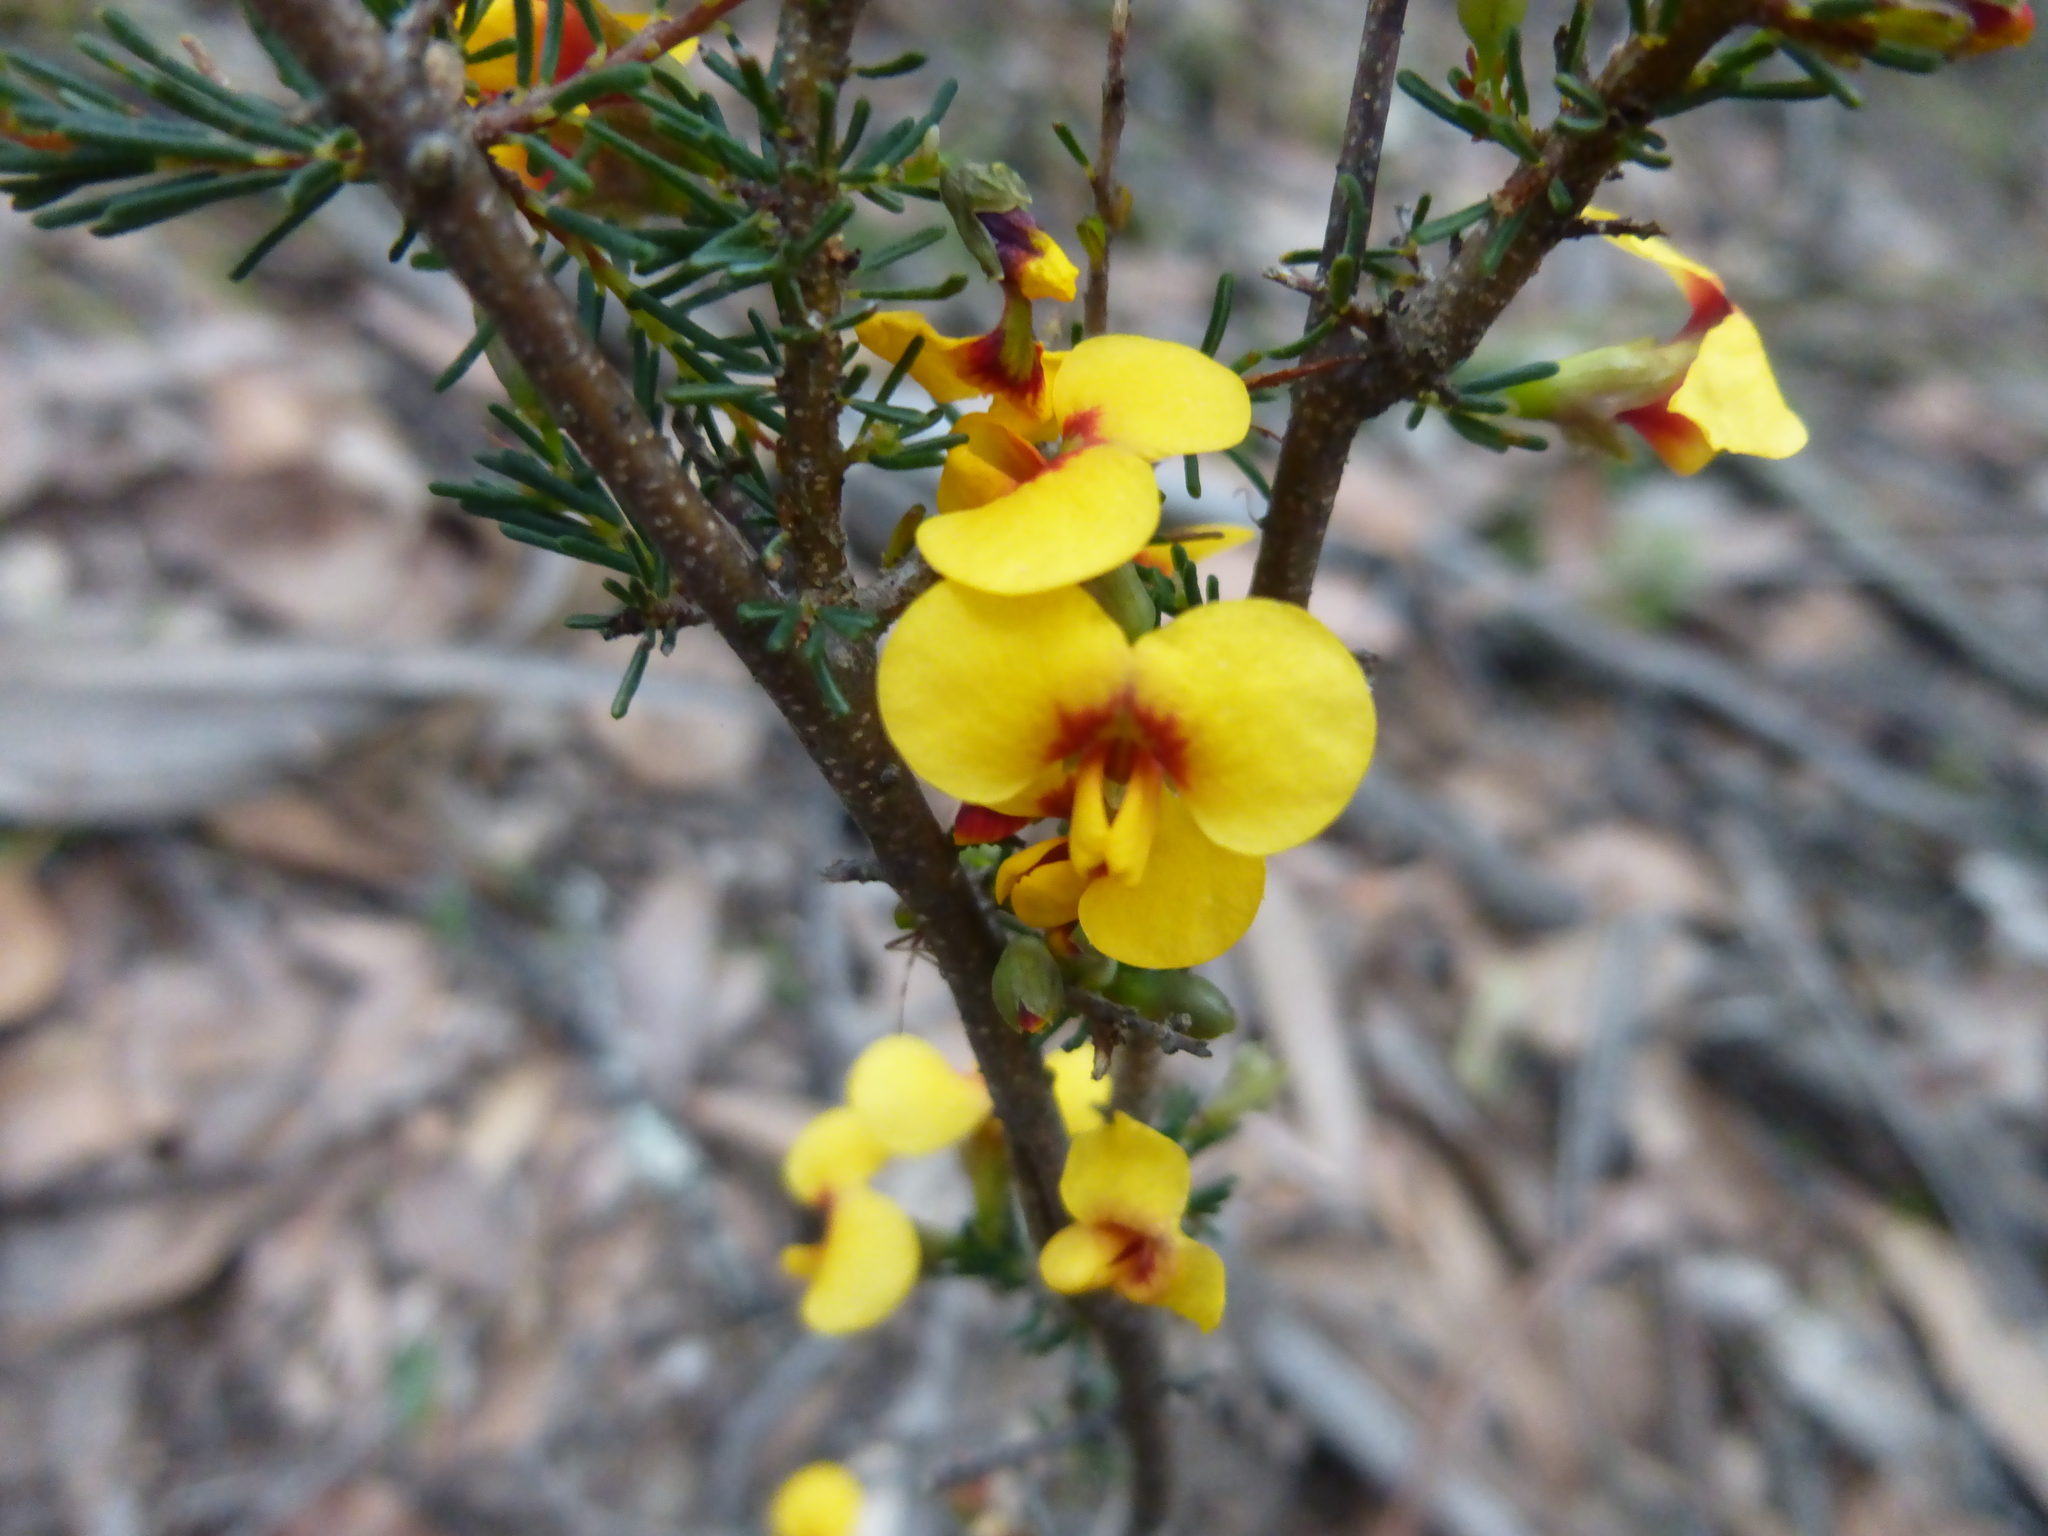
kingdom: Plantae
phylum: Tracheophyta
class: Magnoliopsida
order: Fabales
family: Fabaceae
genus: Dillwynia
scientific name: Dillwynia ramosissima
